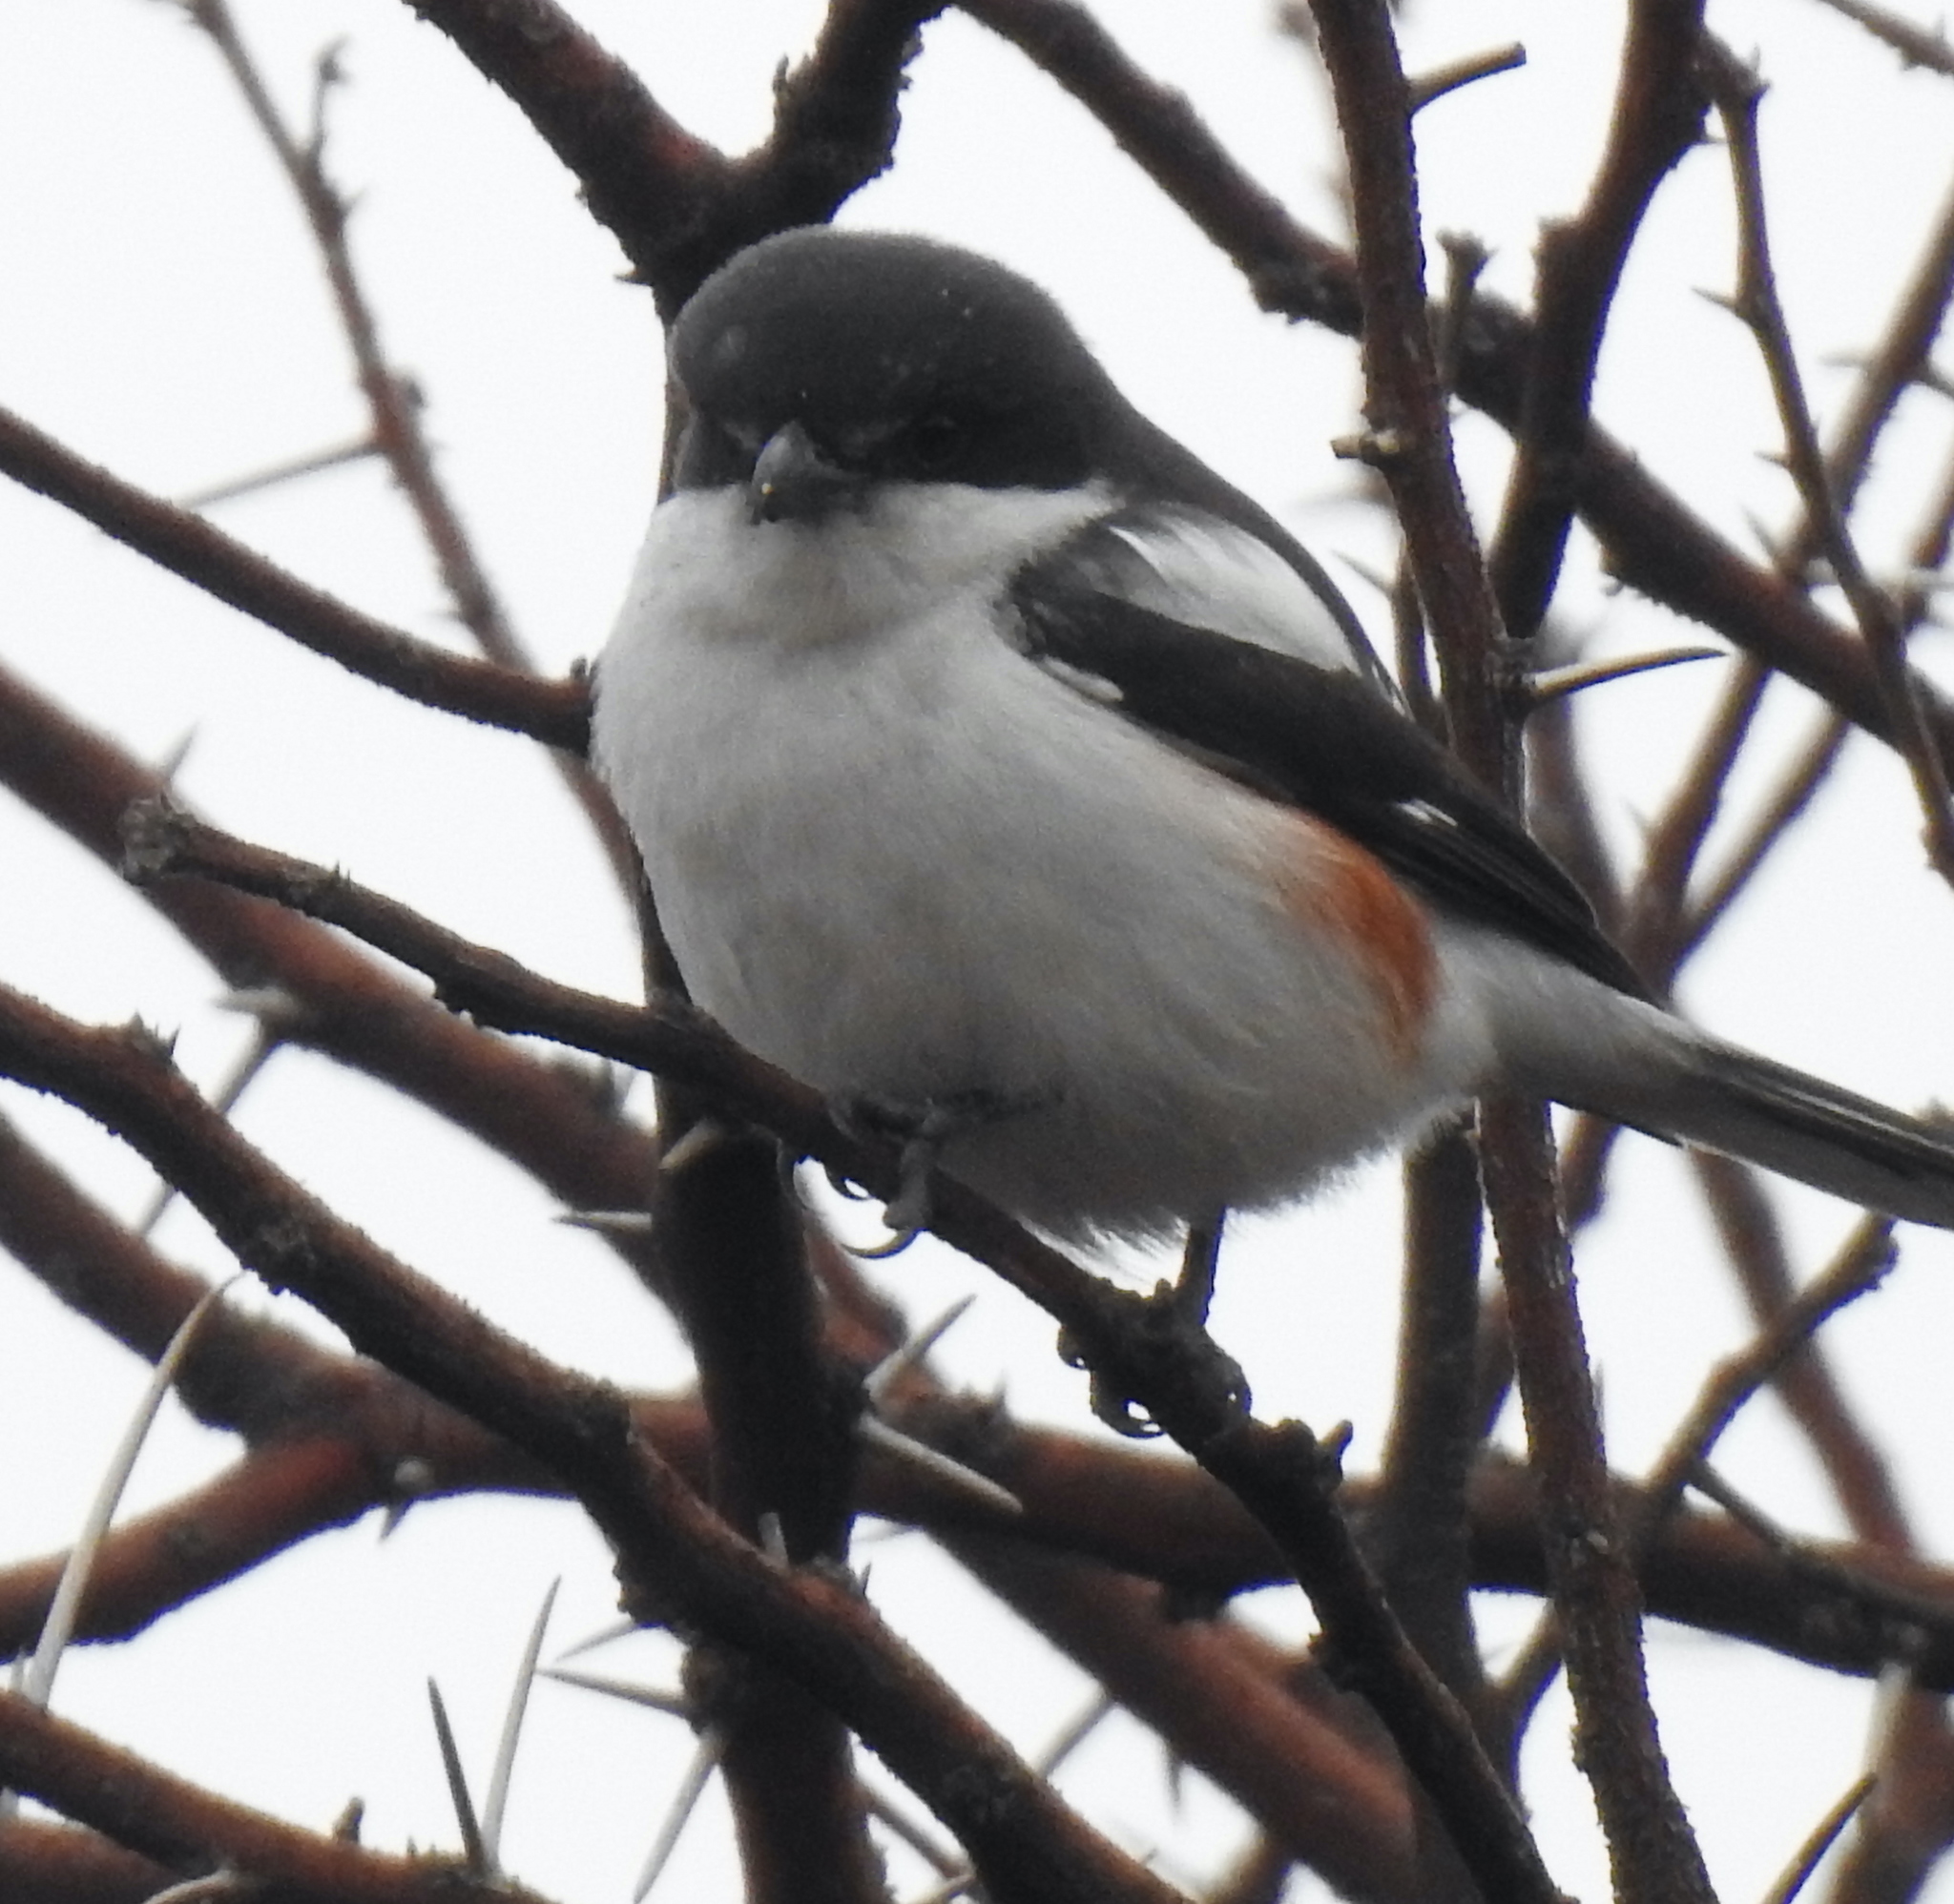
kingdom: Animalia
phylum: Chordata
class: Aves
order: Passeriformes
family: Laniidae
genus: Lanius
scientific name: Lanius collaris
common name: Southern fiscal
